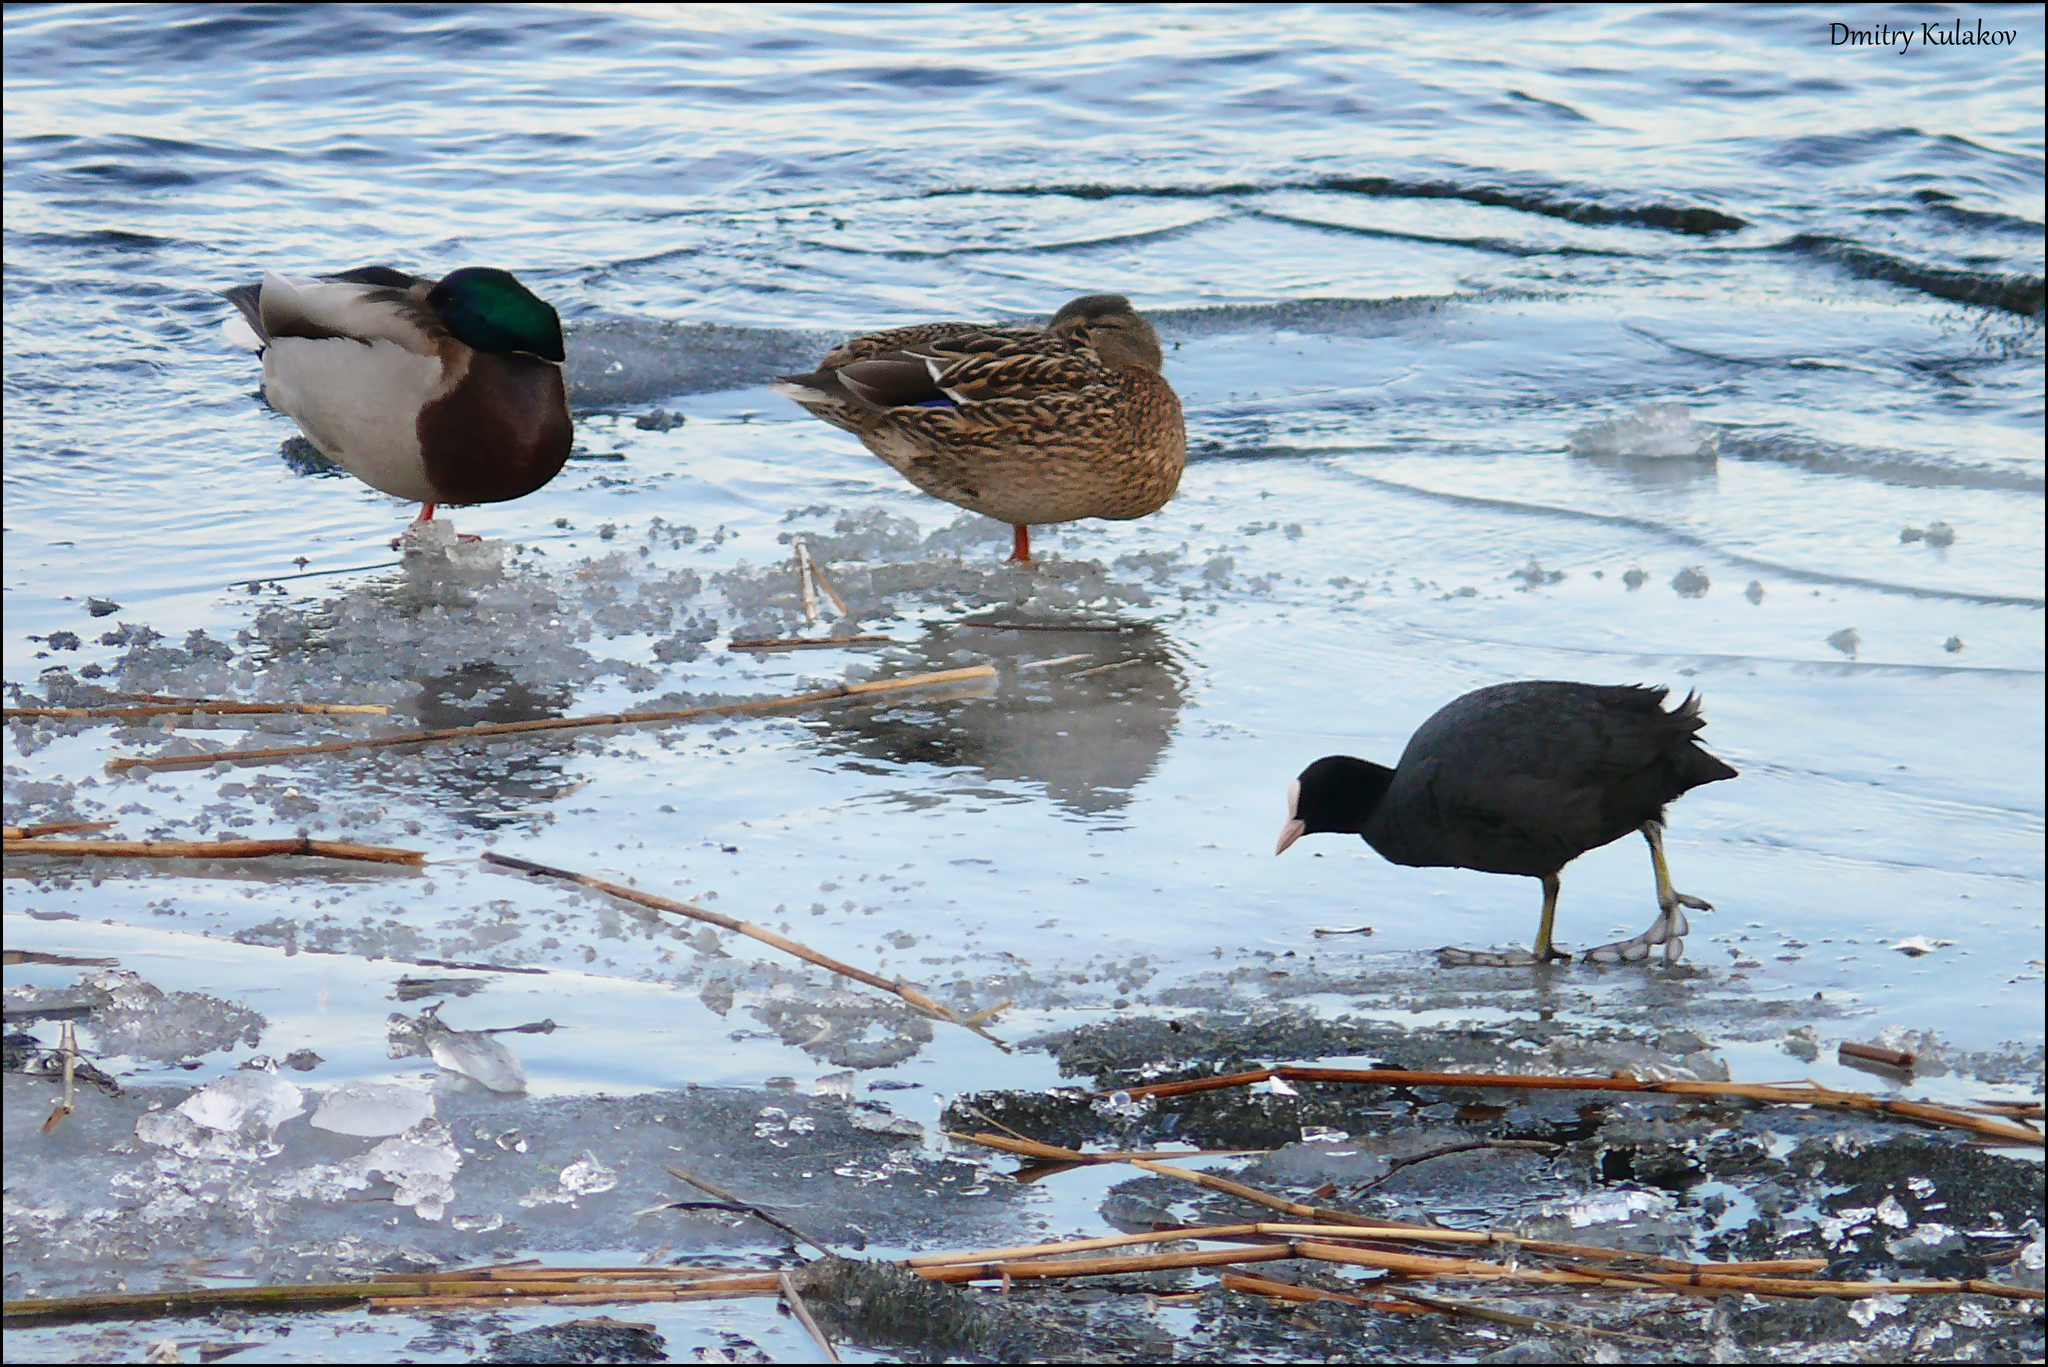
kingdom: Animalia
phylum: Chordata
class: Aves
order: Gruiformes
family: Rallidae
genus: Fulica
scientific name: Fulica atra
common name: Eurasian coot
